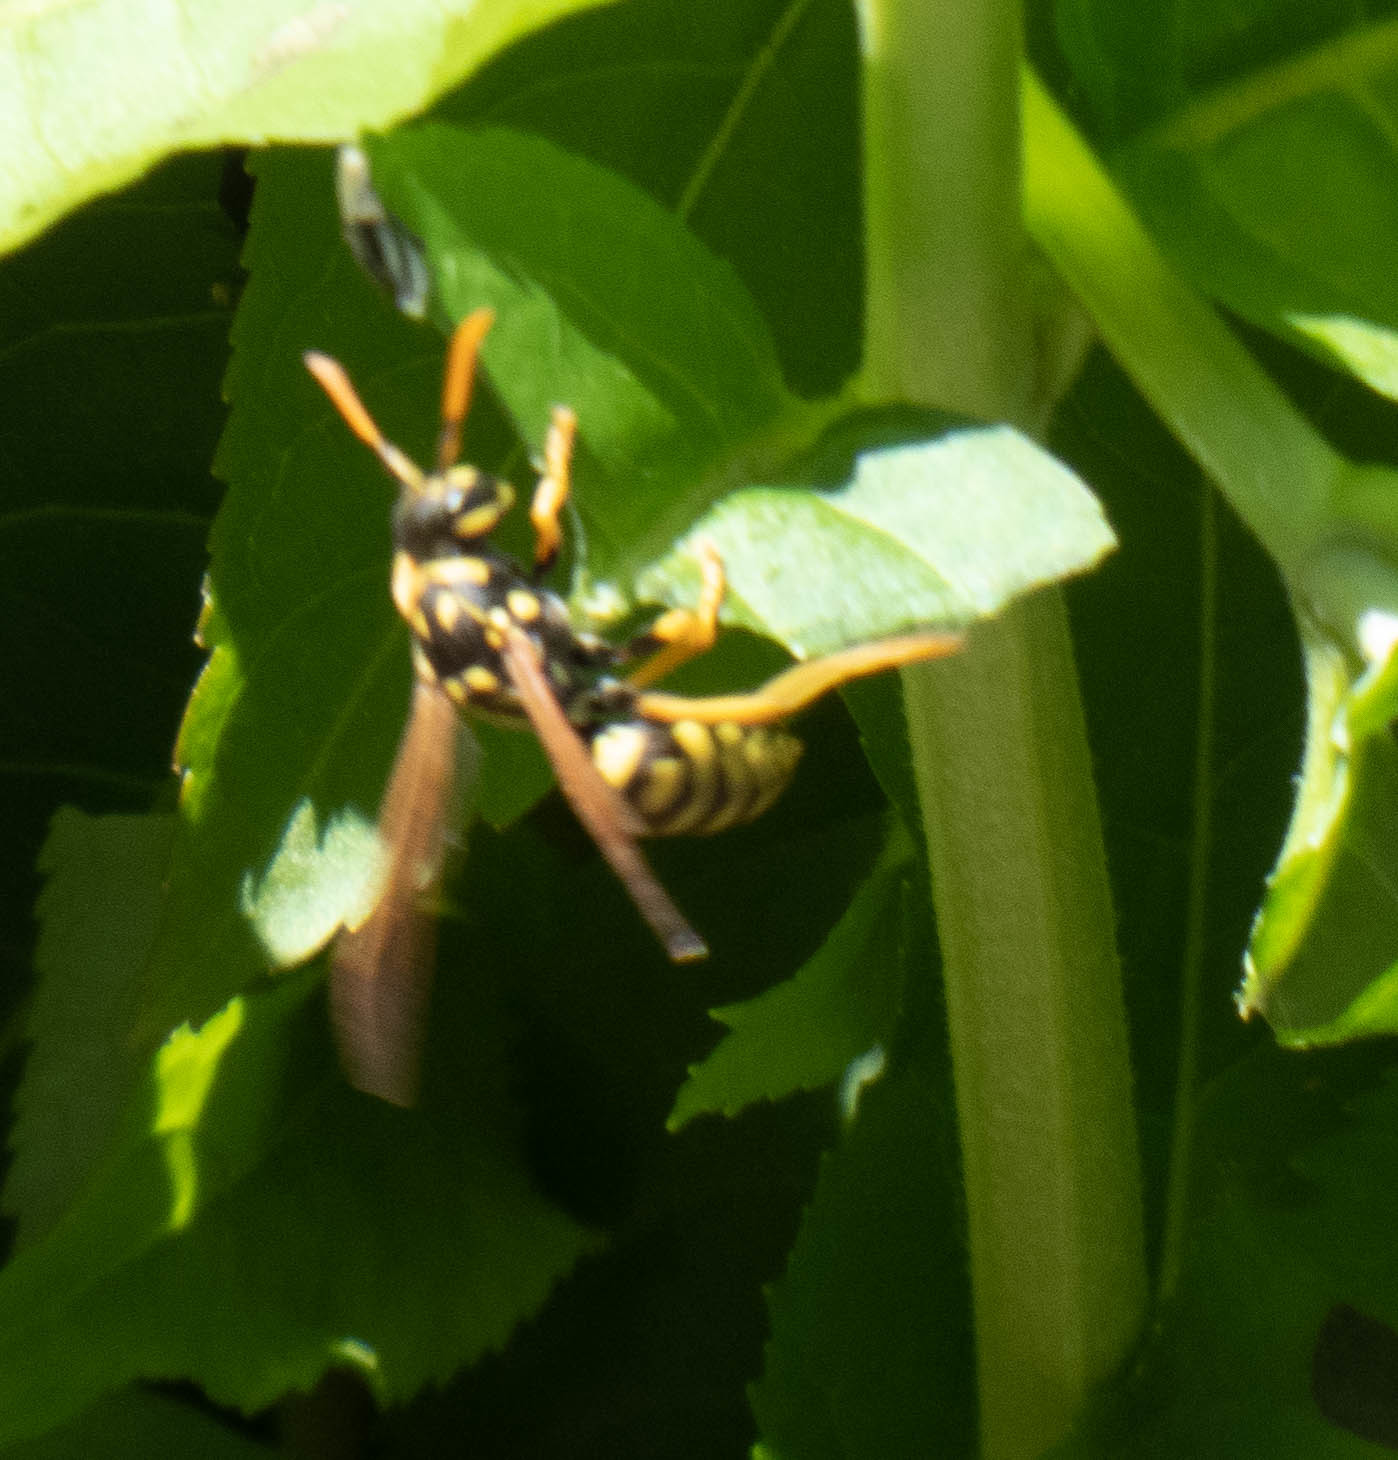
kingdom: Animalia
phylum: Arthropoda
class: Insecta
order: Hymenoptera
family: Eumenidae
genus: Polistes
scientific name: Polistes dominula
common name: Paper wasp
